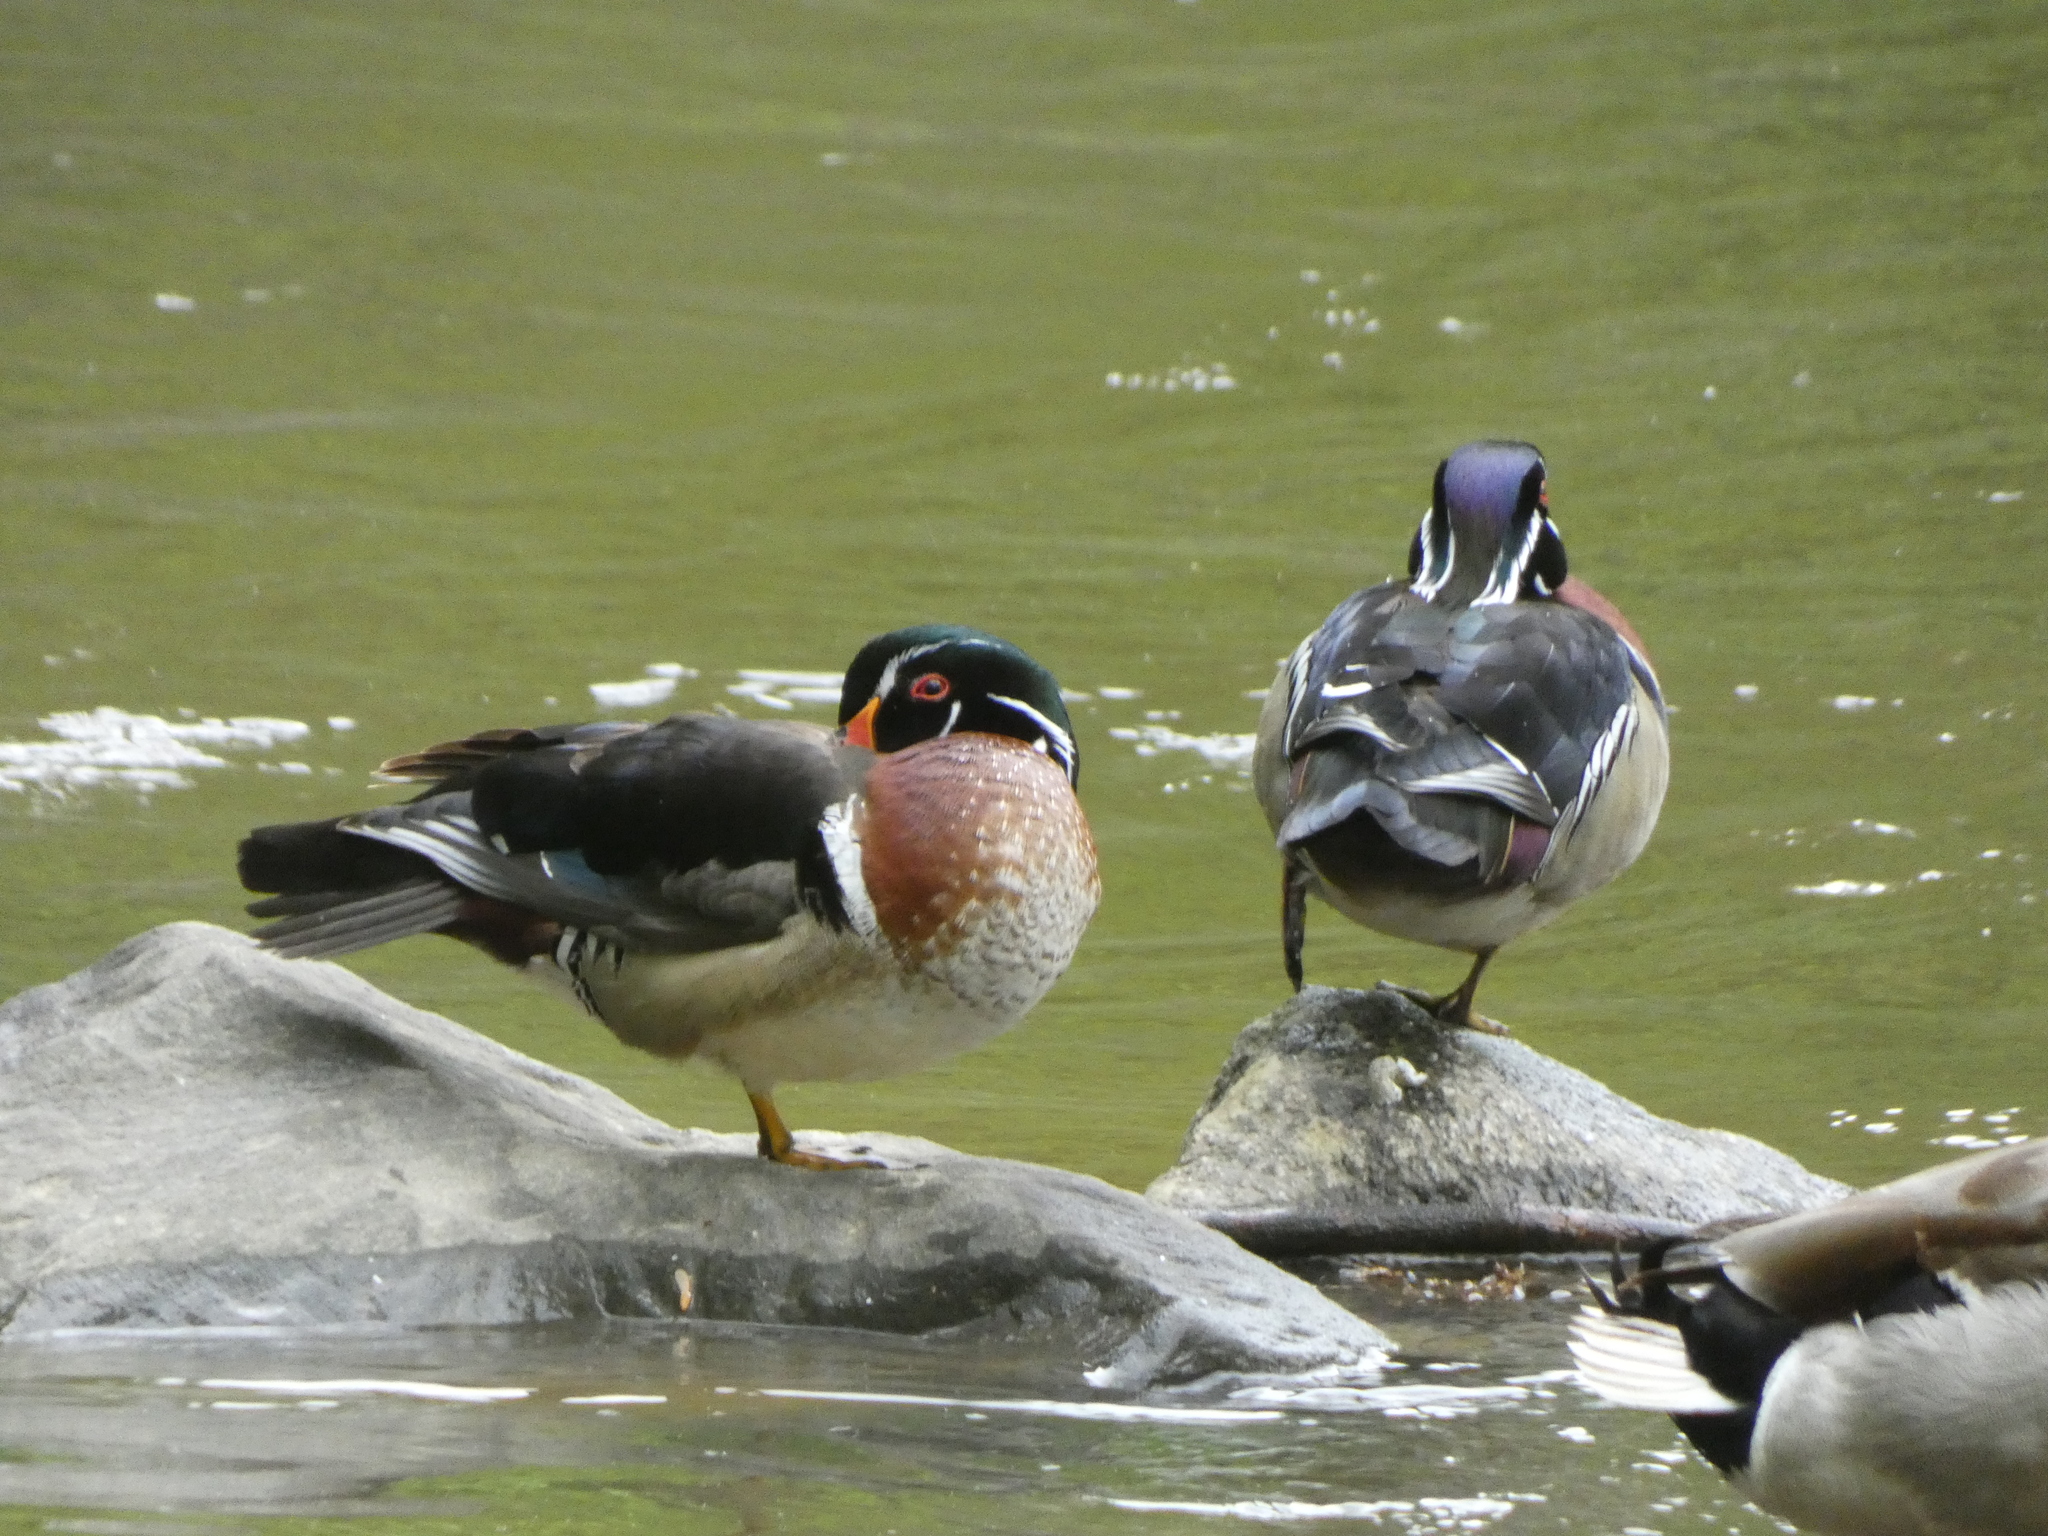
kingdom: Animalia
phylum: Chordata
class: Aves
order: Anseriformes
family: Anatidae
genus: Aix
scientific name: Aix sponsa
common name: Wood duck
